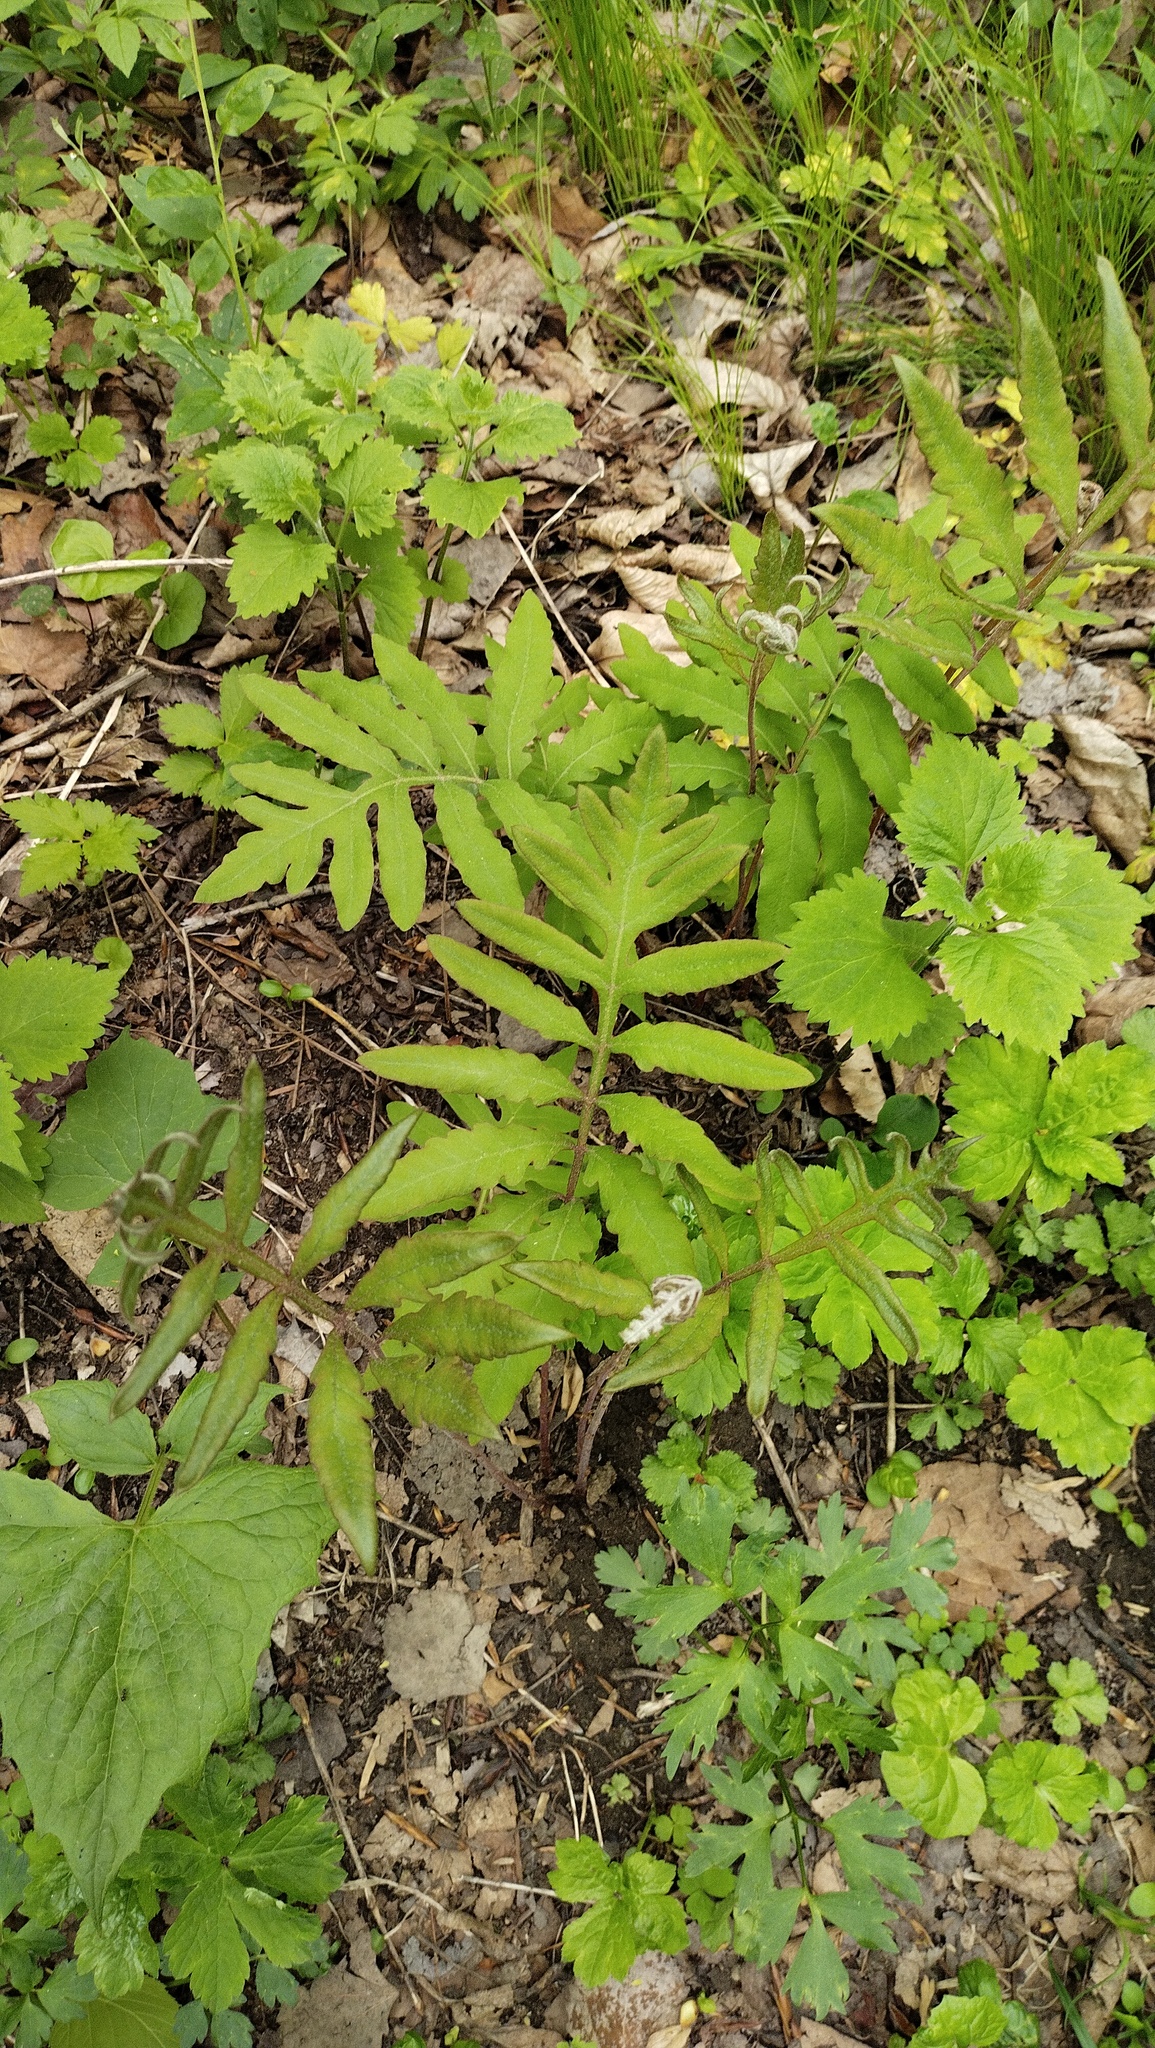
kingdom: Plantae
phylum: Tracheophyta
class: Polypodiopsida
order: Polypodiales
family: Onocleaceae
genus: Onoclea
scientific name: Onoclea sensibilis
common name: Sensitive fern
